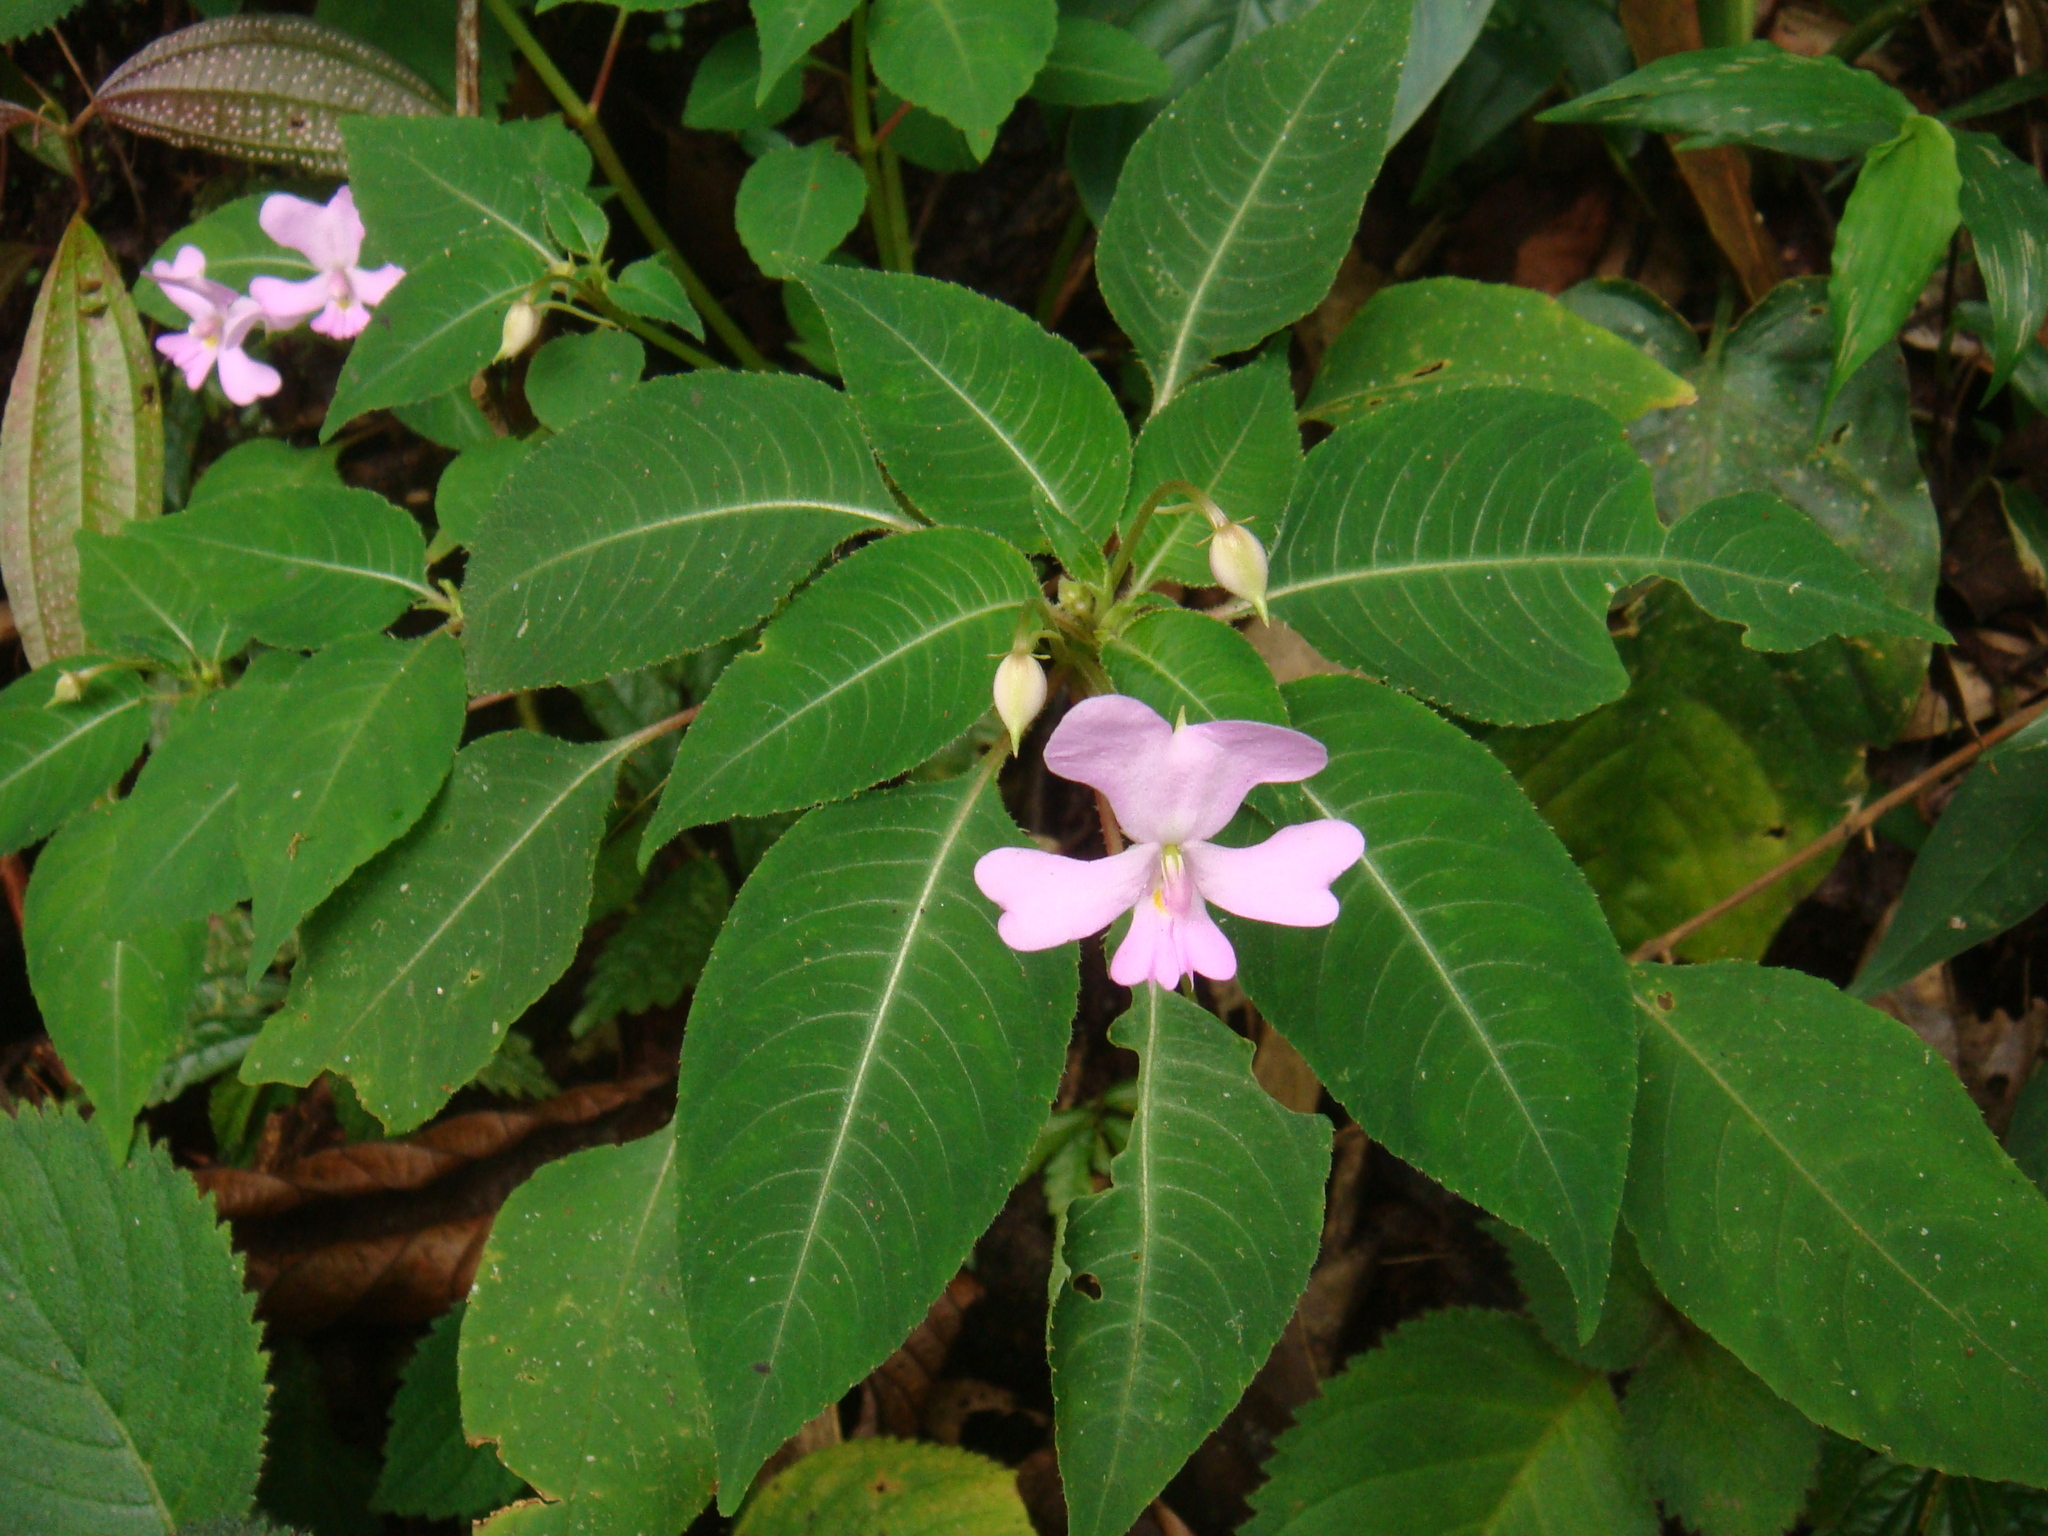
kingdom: Plantae
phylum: Tracheophyta
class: Magnoliopsida
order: Ericales
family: Balsaminaceae
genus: Impatiens
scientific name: Impatiens kinabaluensis
